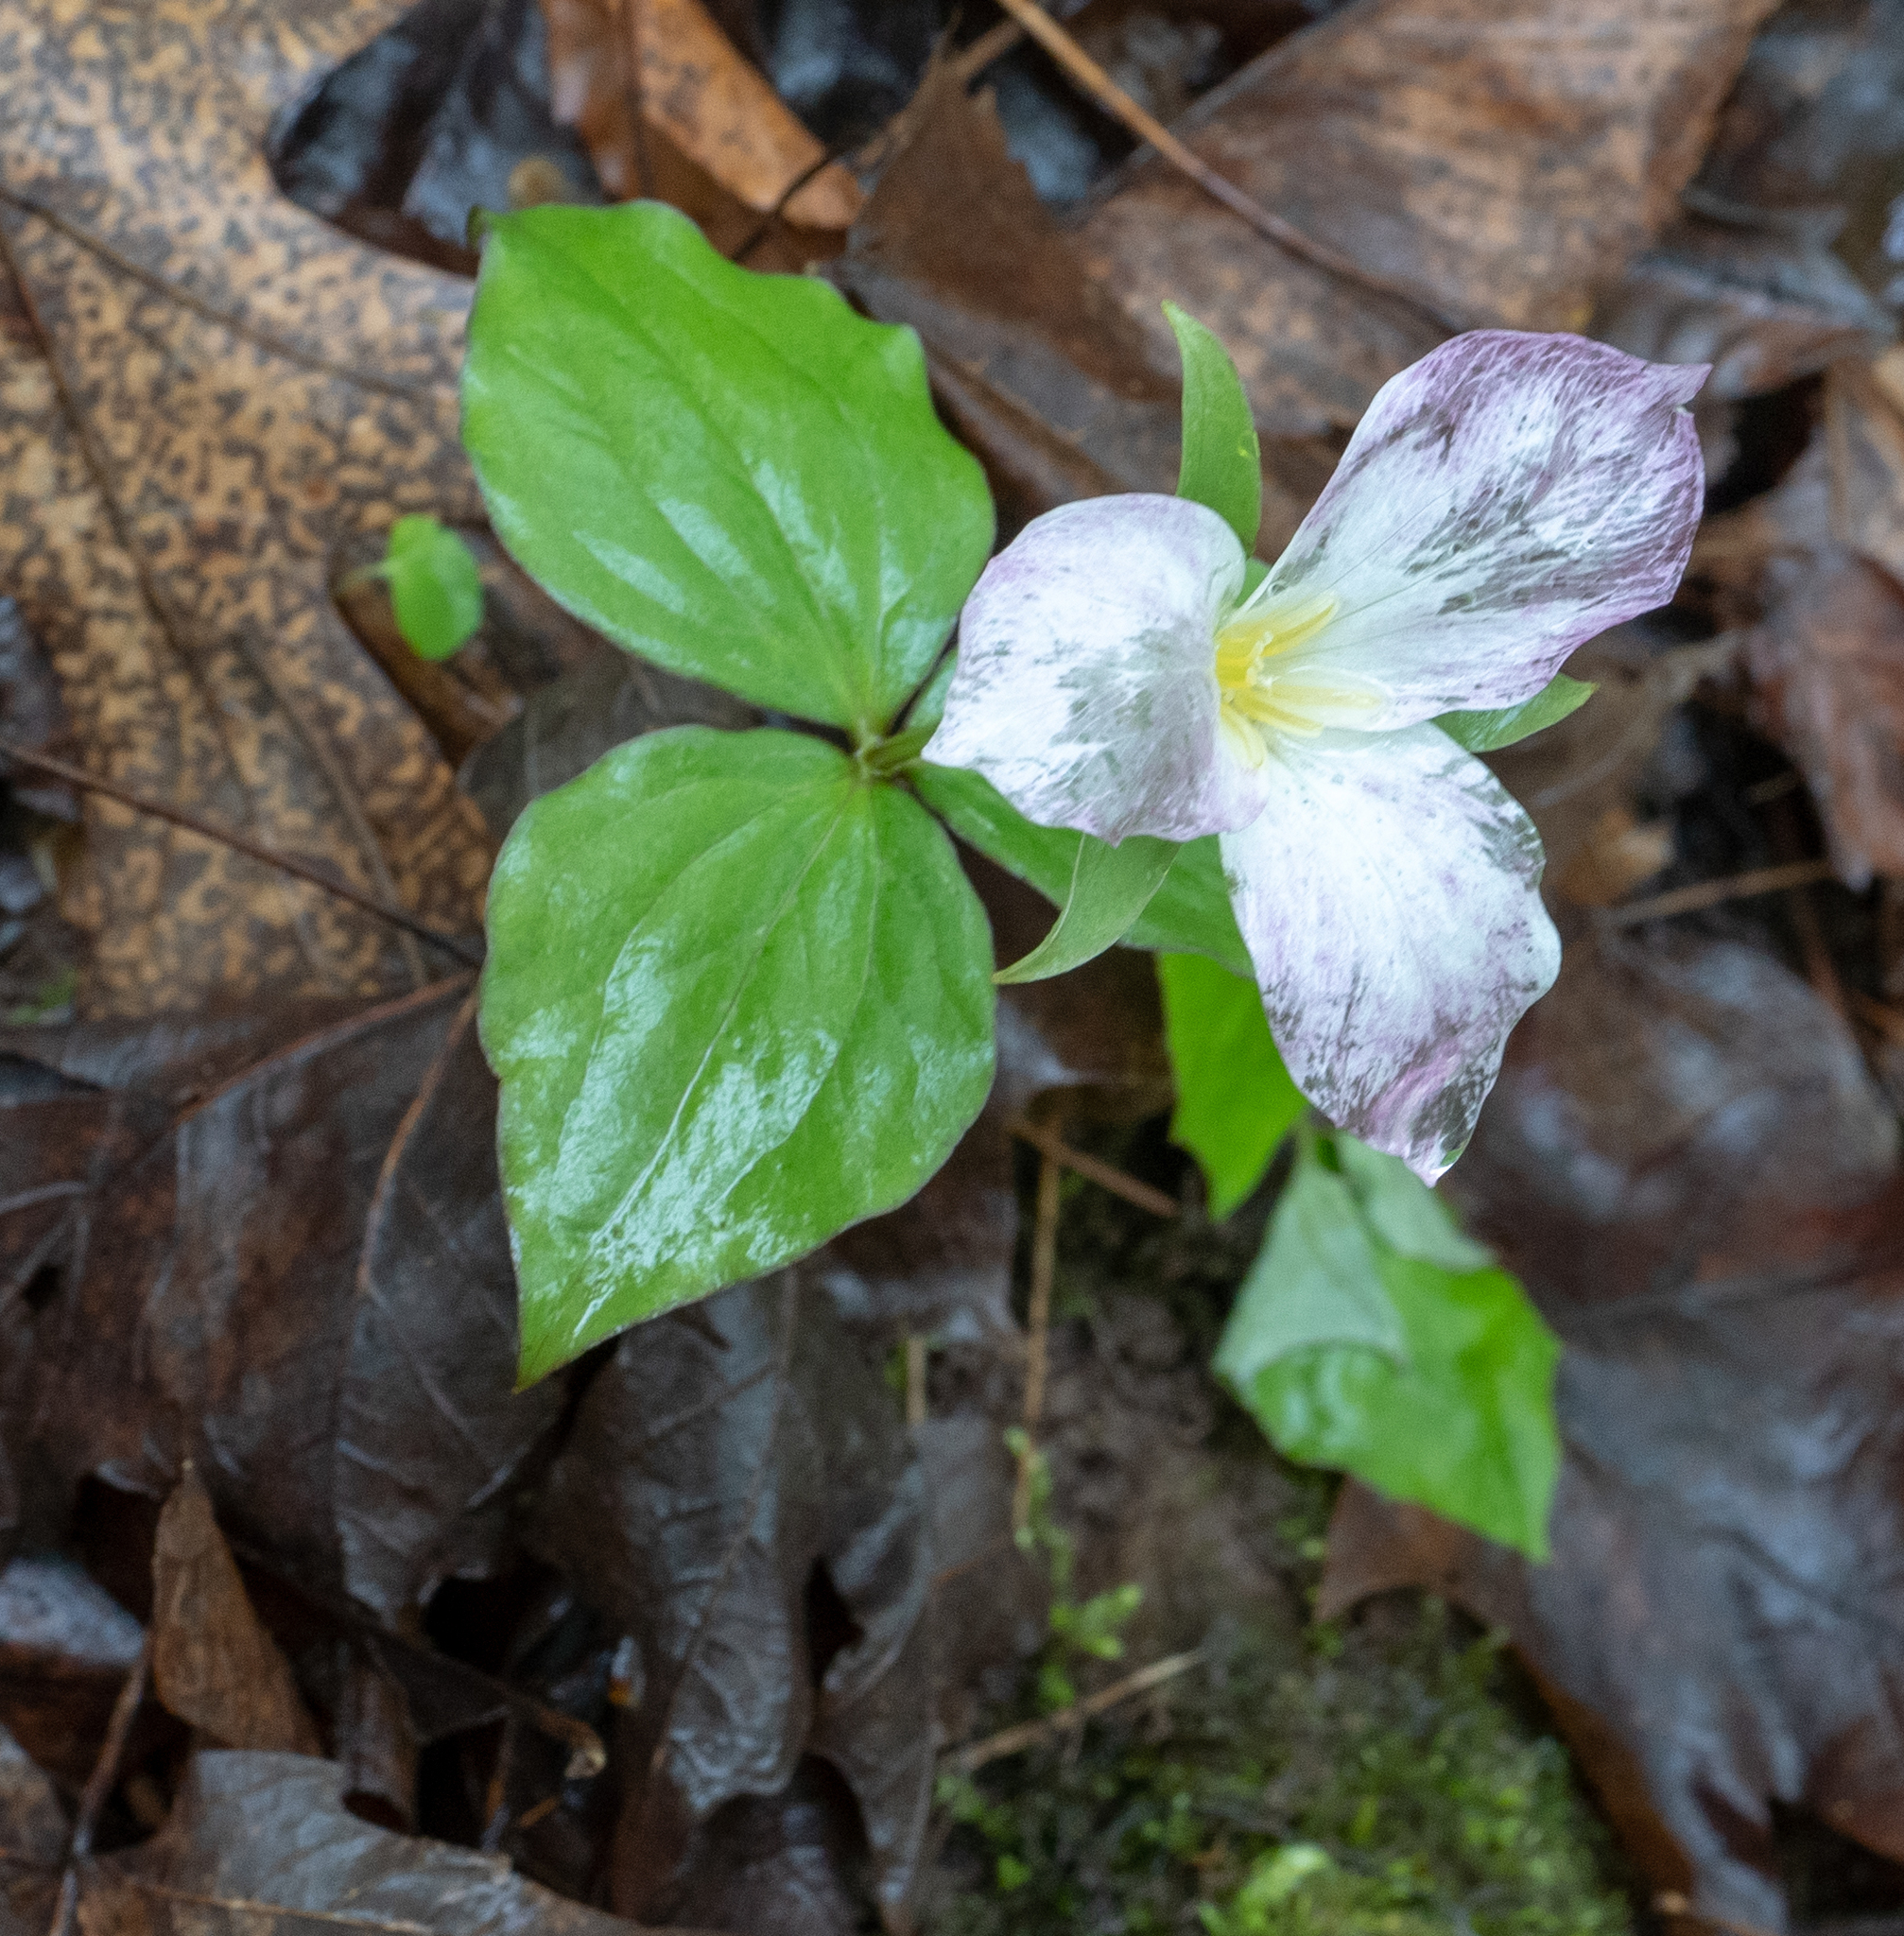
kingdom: Plantae
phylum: Tracheophyta
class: Liliopsida
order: Liliales
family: Melanthiaceae
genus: Trillium
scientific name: Trillium grandiflorum
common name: Great white trillium
